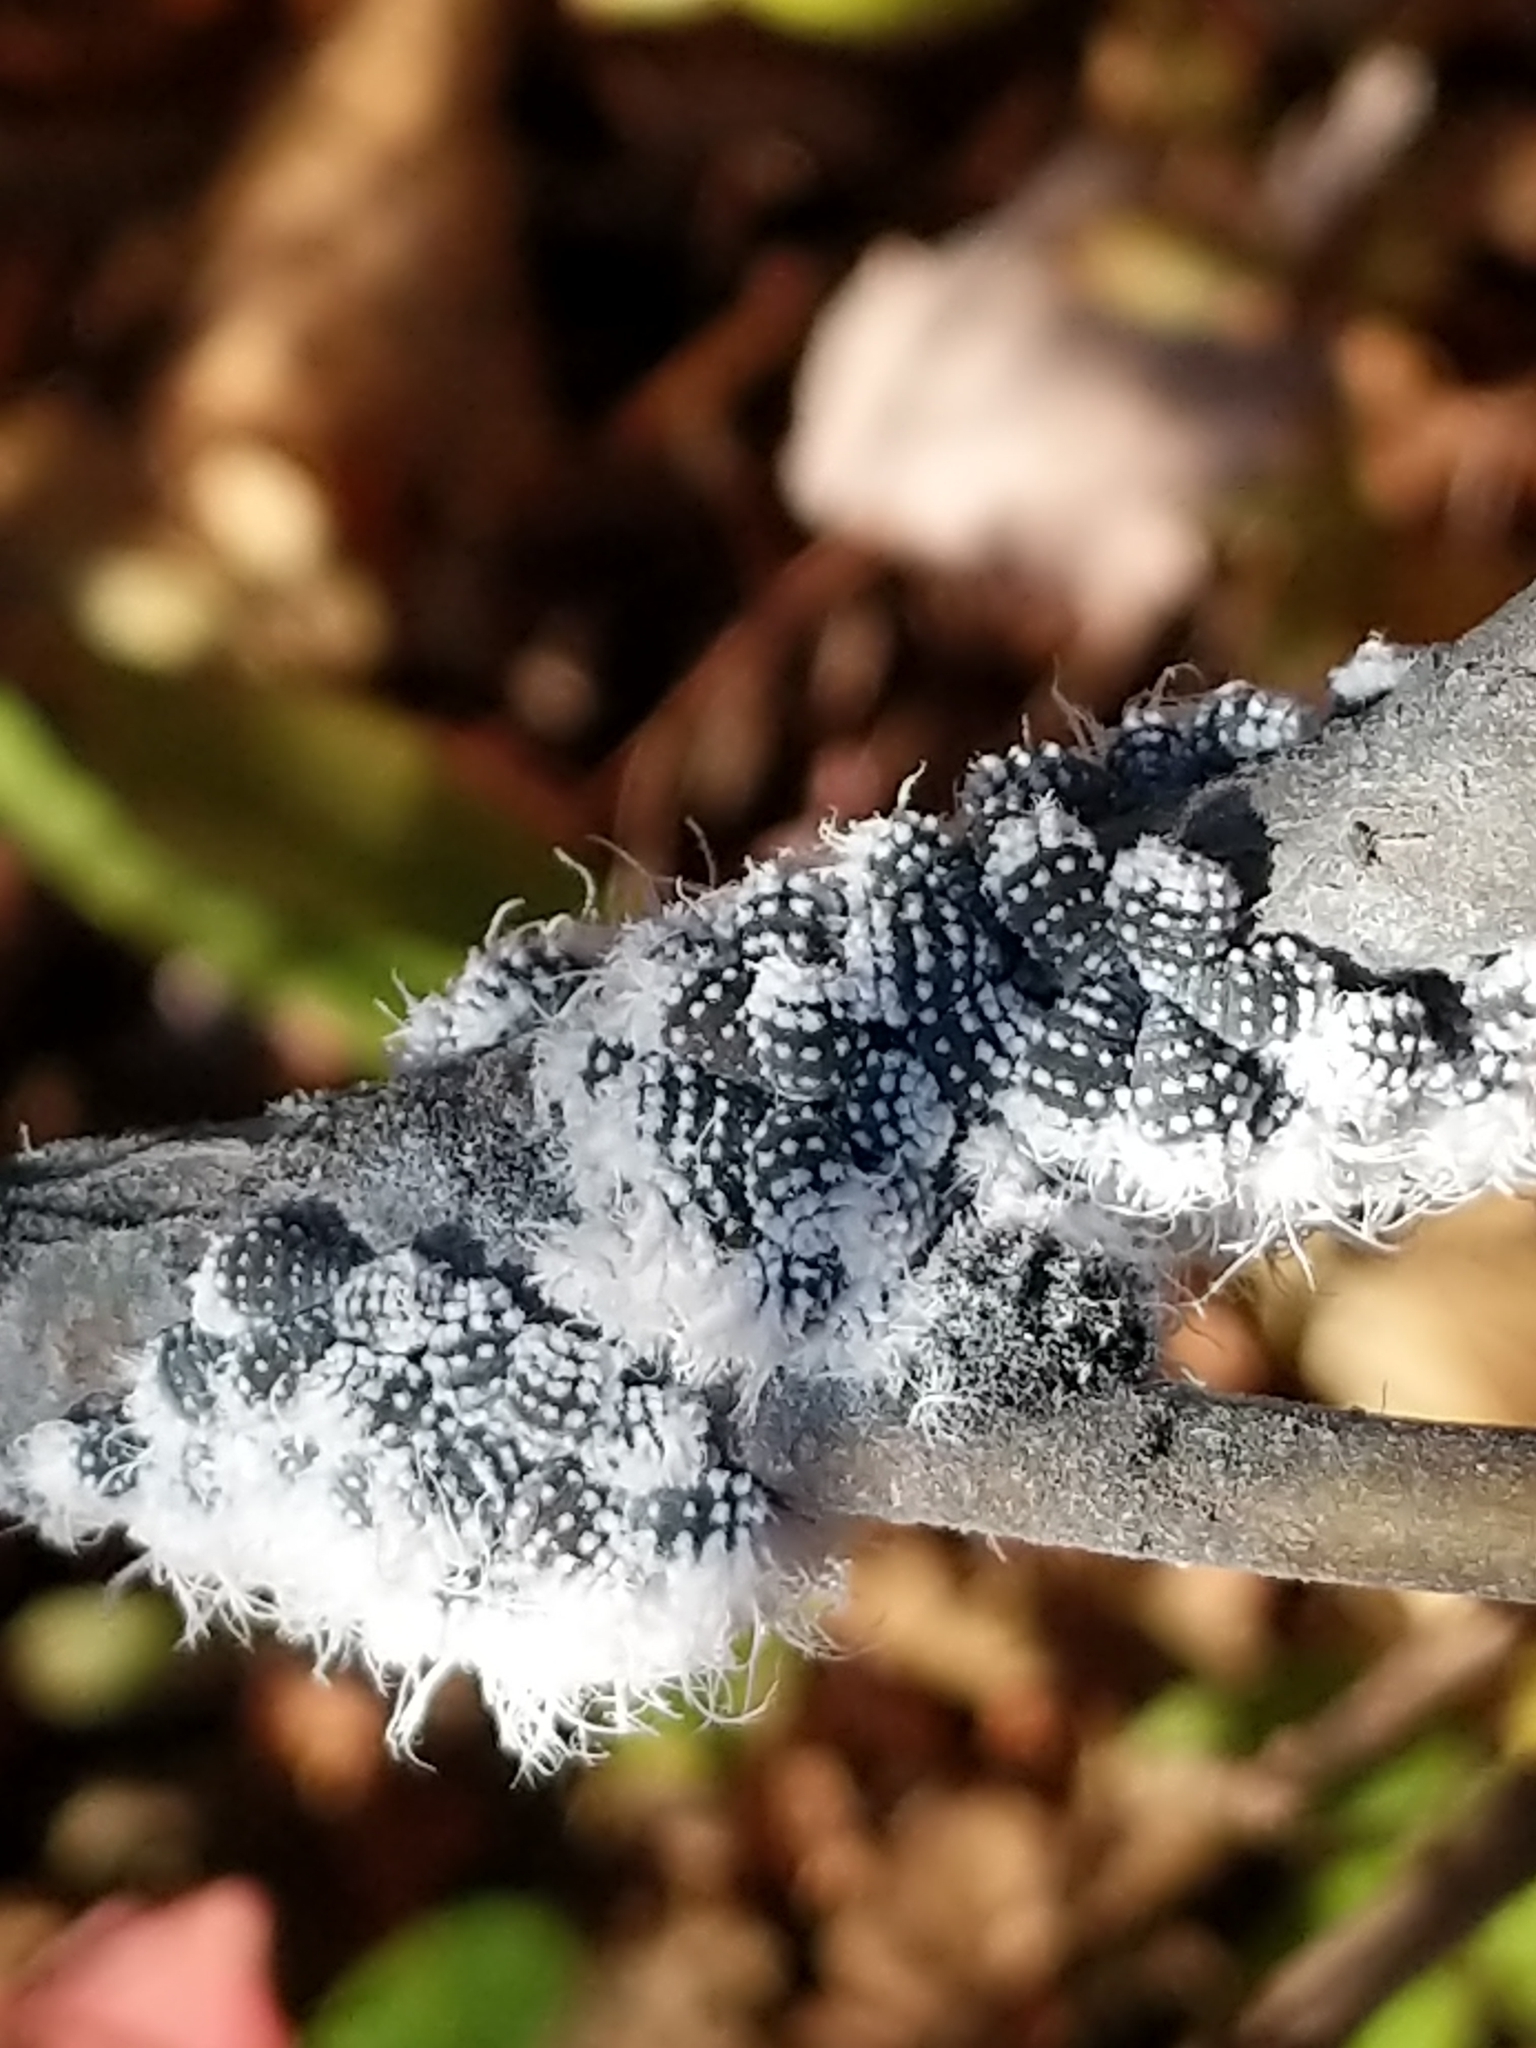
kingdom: Animalia
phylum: Arthropoda
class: Insecta
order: Hemiptera
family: Aphididae
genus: Prociphilus
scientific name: Prociphilus tessellatus
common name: Woolly alder aphid
